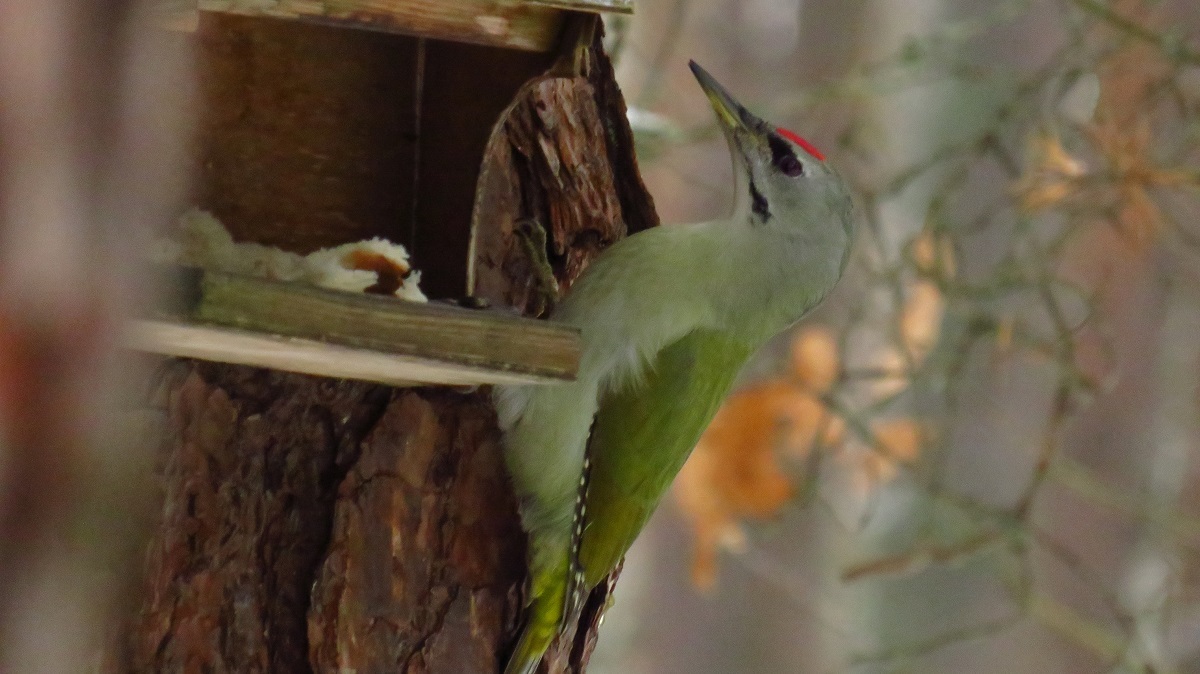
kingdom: Animalia
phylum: Chordata
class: Aves
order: Piciformes
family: Picidae
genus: Picus
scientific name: Picus canus
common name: Grey-headed woodpecker
